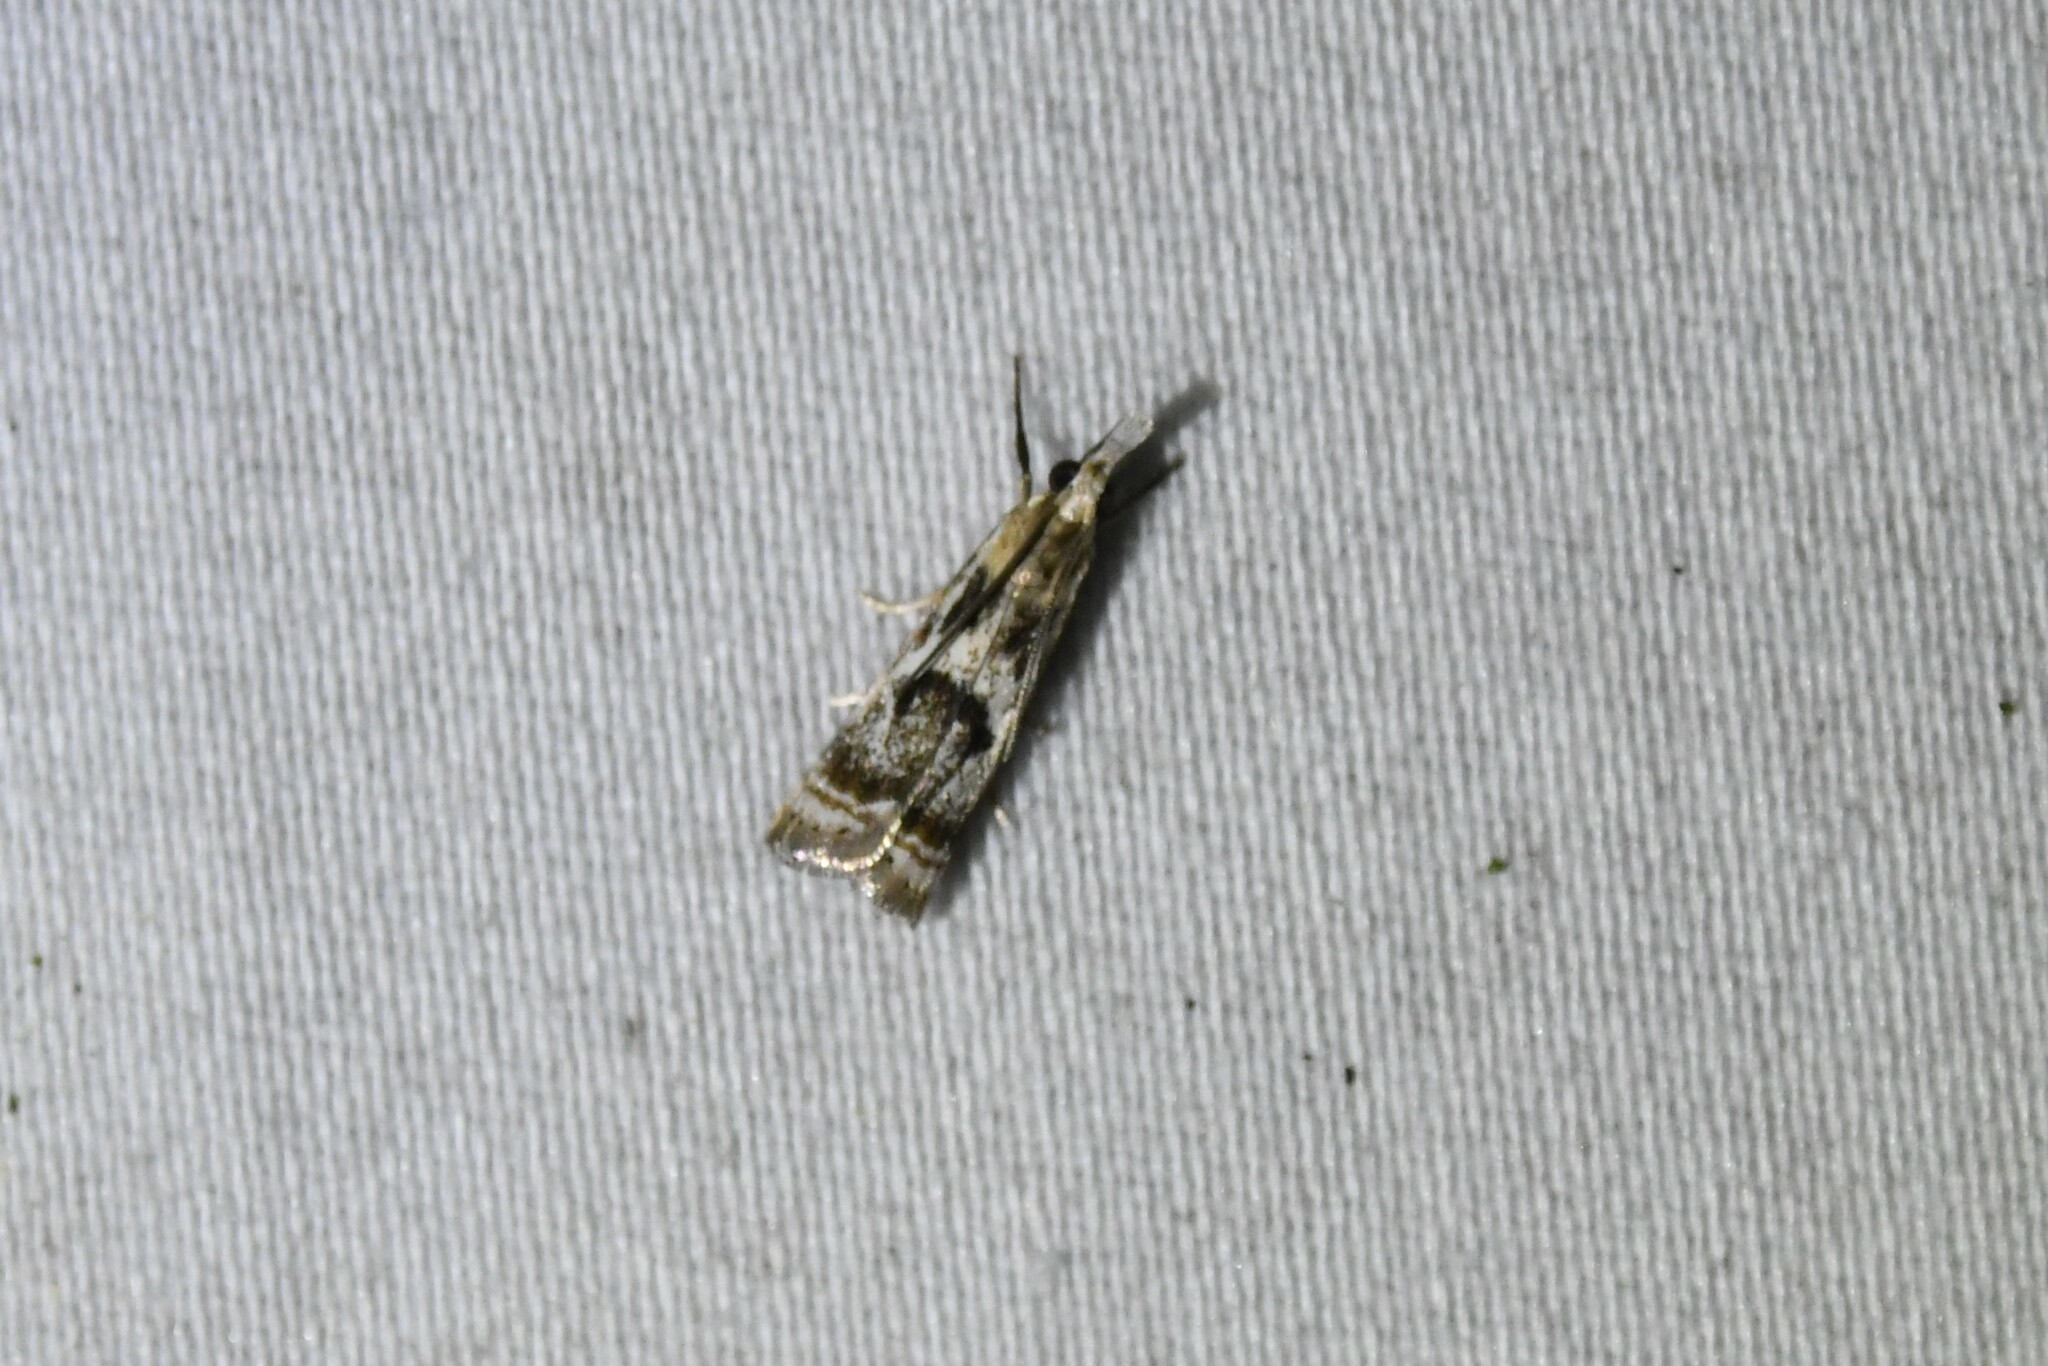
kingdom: Animalia
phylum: Arthropoda
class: Insecta
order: Lepidoptera
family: Crambidae
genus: Microcrambus
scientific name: Microcrambus elegans
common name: Elegant grass-veneer
